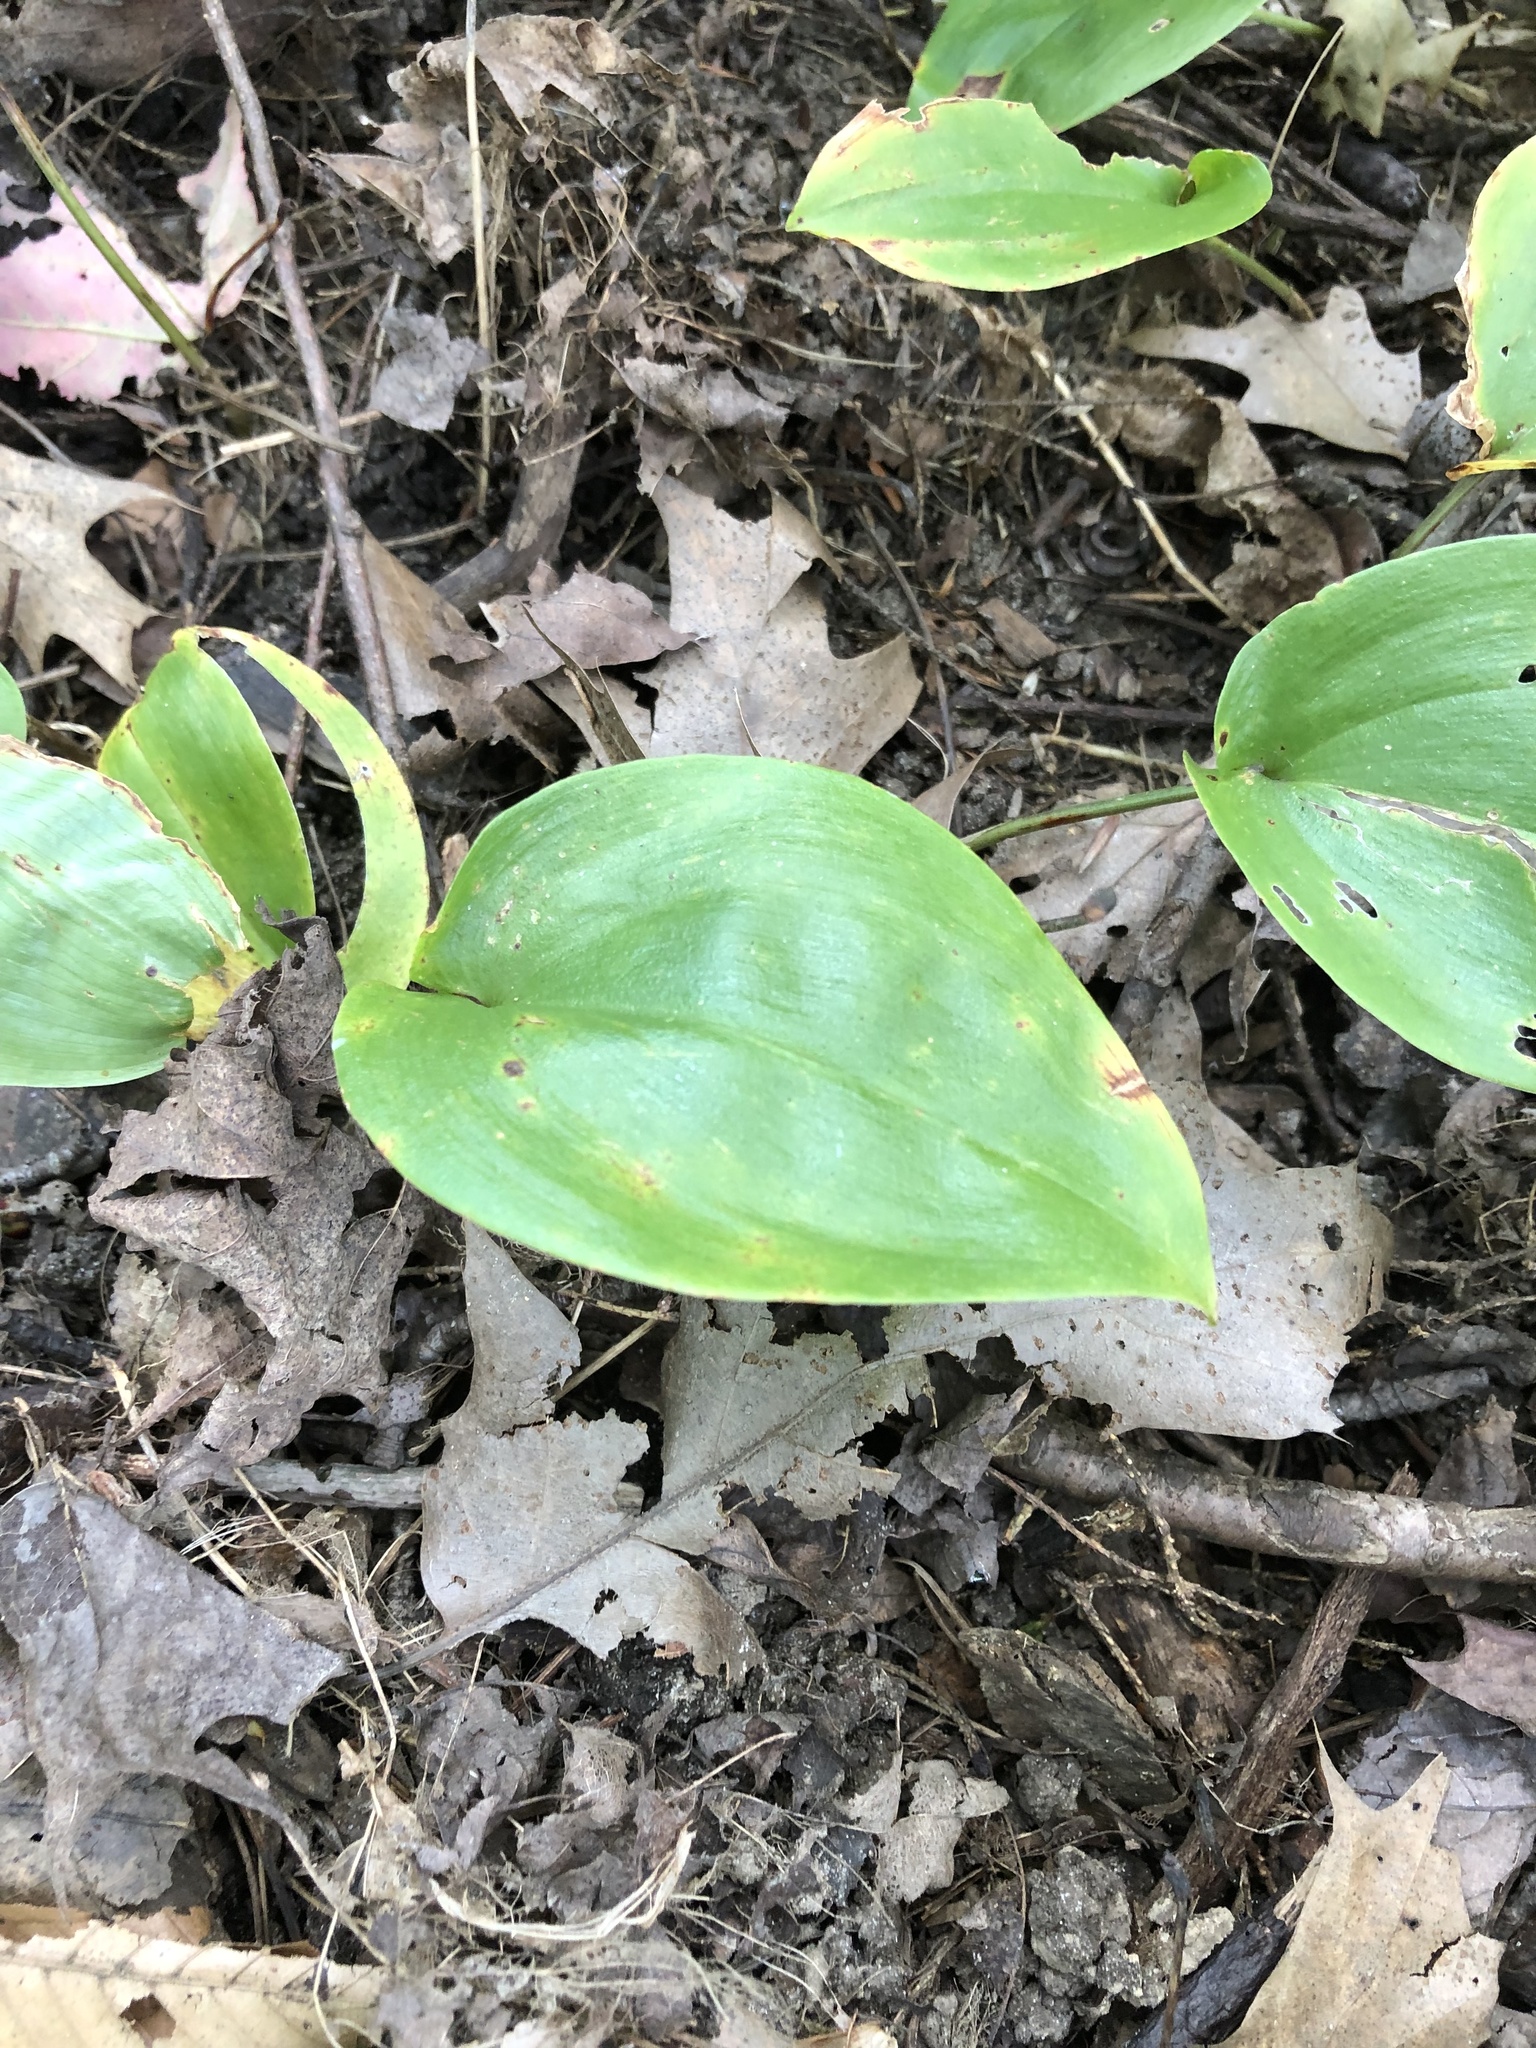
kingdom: Plantae
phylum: Tracheophyta
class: Liliopsida
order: Asparagales
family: Asparagaceae
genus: Maianthemum
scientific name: Maianthemum canadense
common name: False lily-of-the-valley
